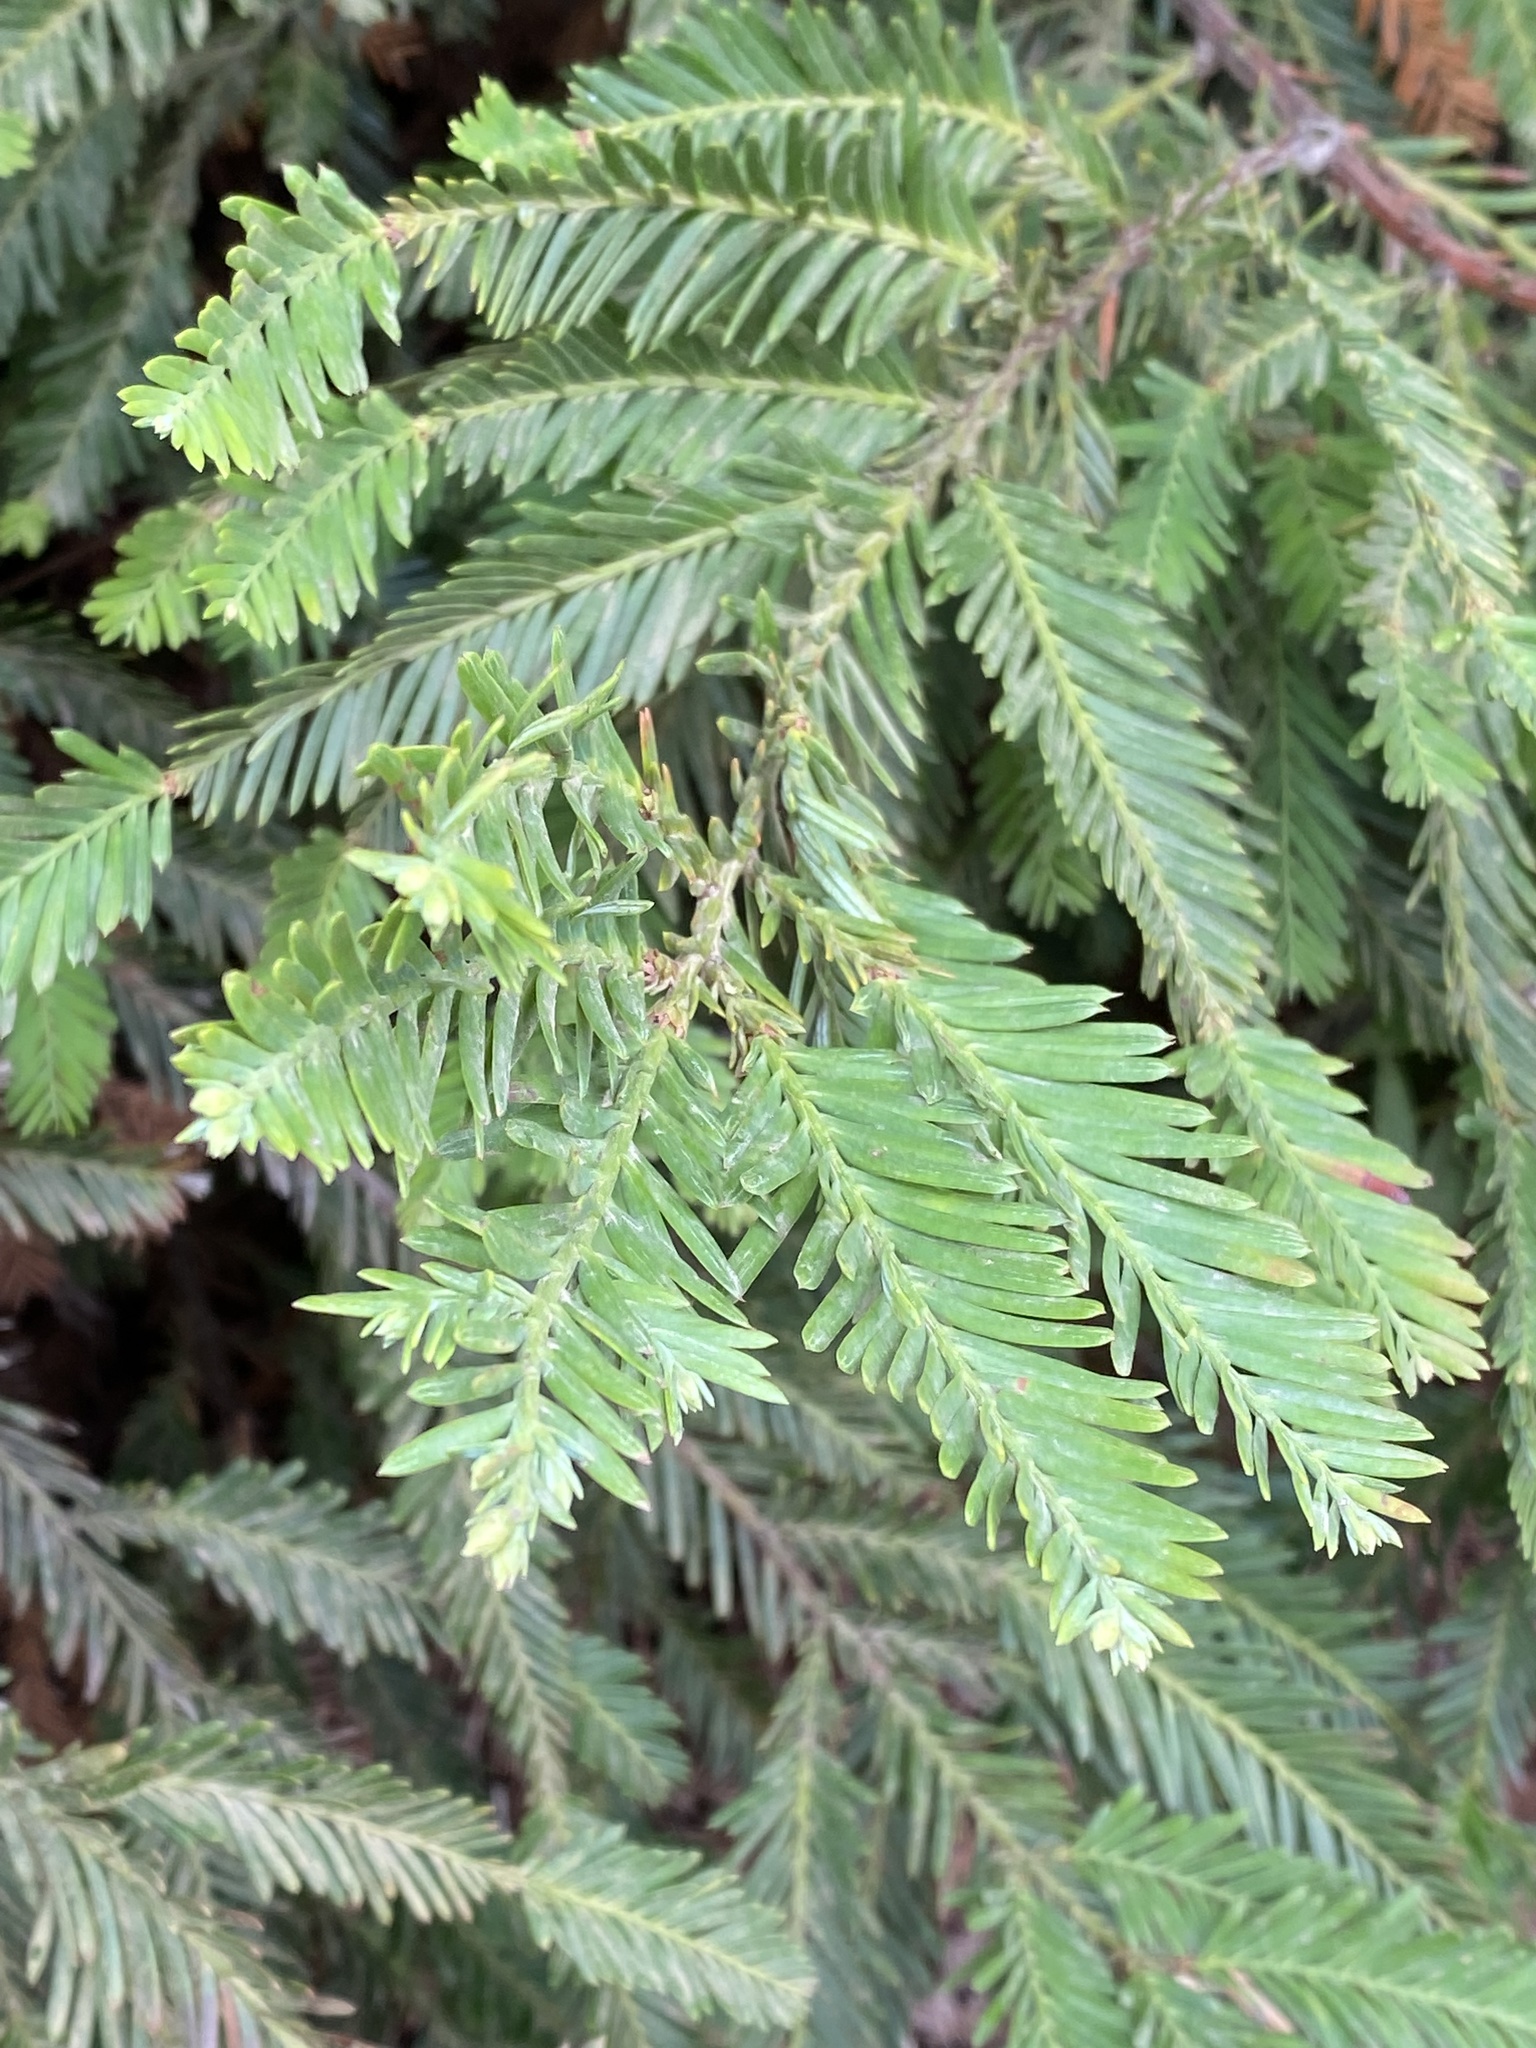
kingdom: Plantae
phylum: Tracheophyta
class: Pinopsida
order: Pinales
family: Cupressaceae
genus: Sequoia
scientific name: Sequoia sempervirens
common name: Coast redwood
